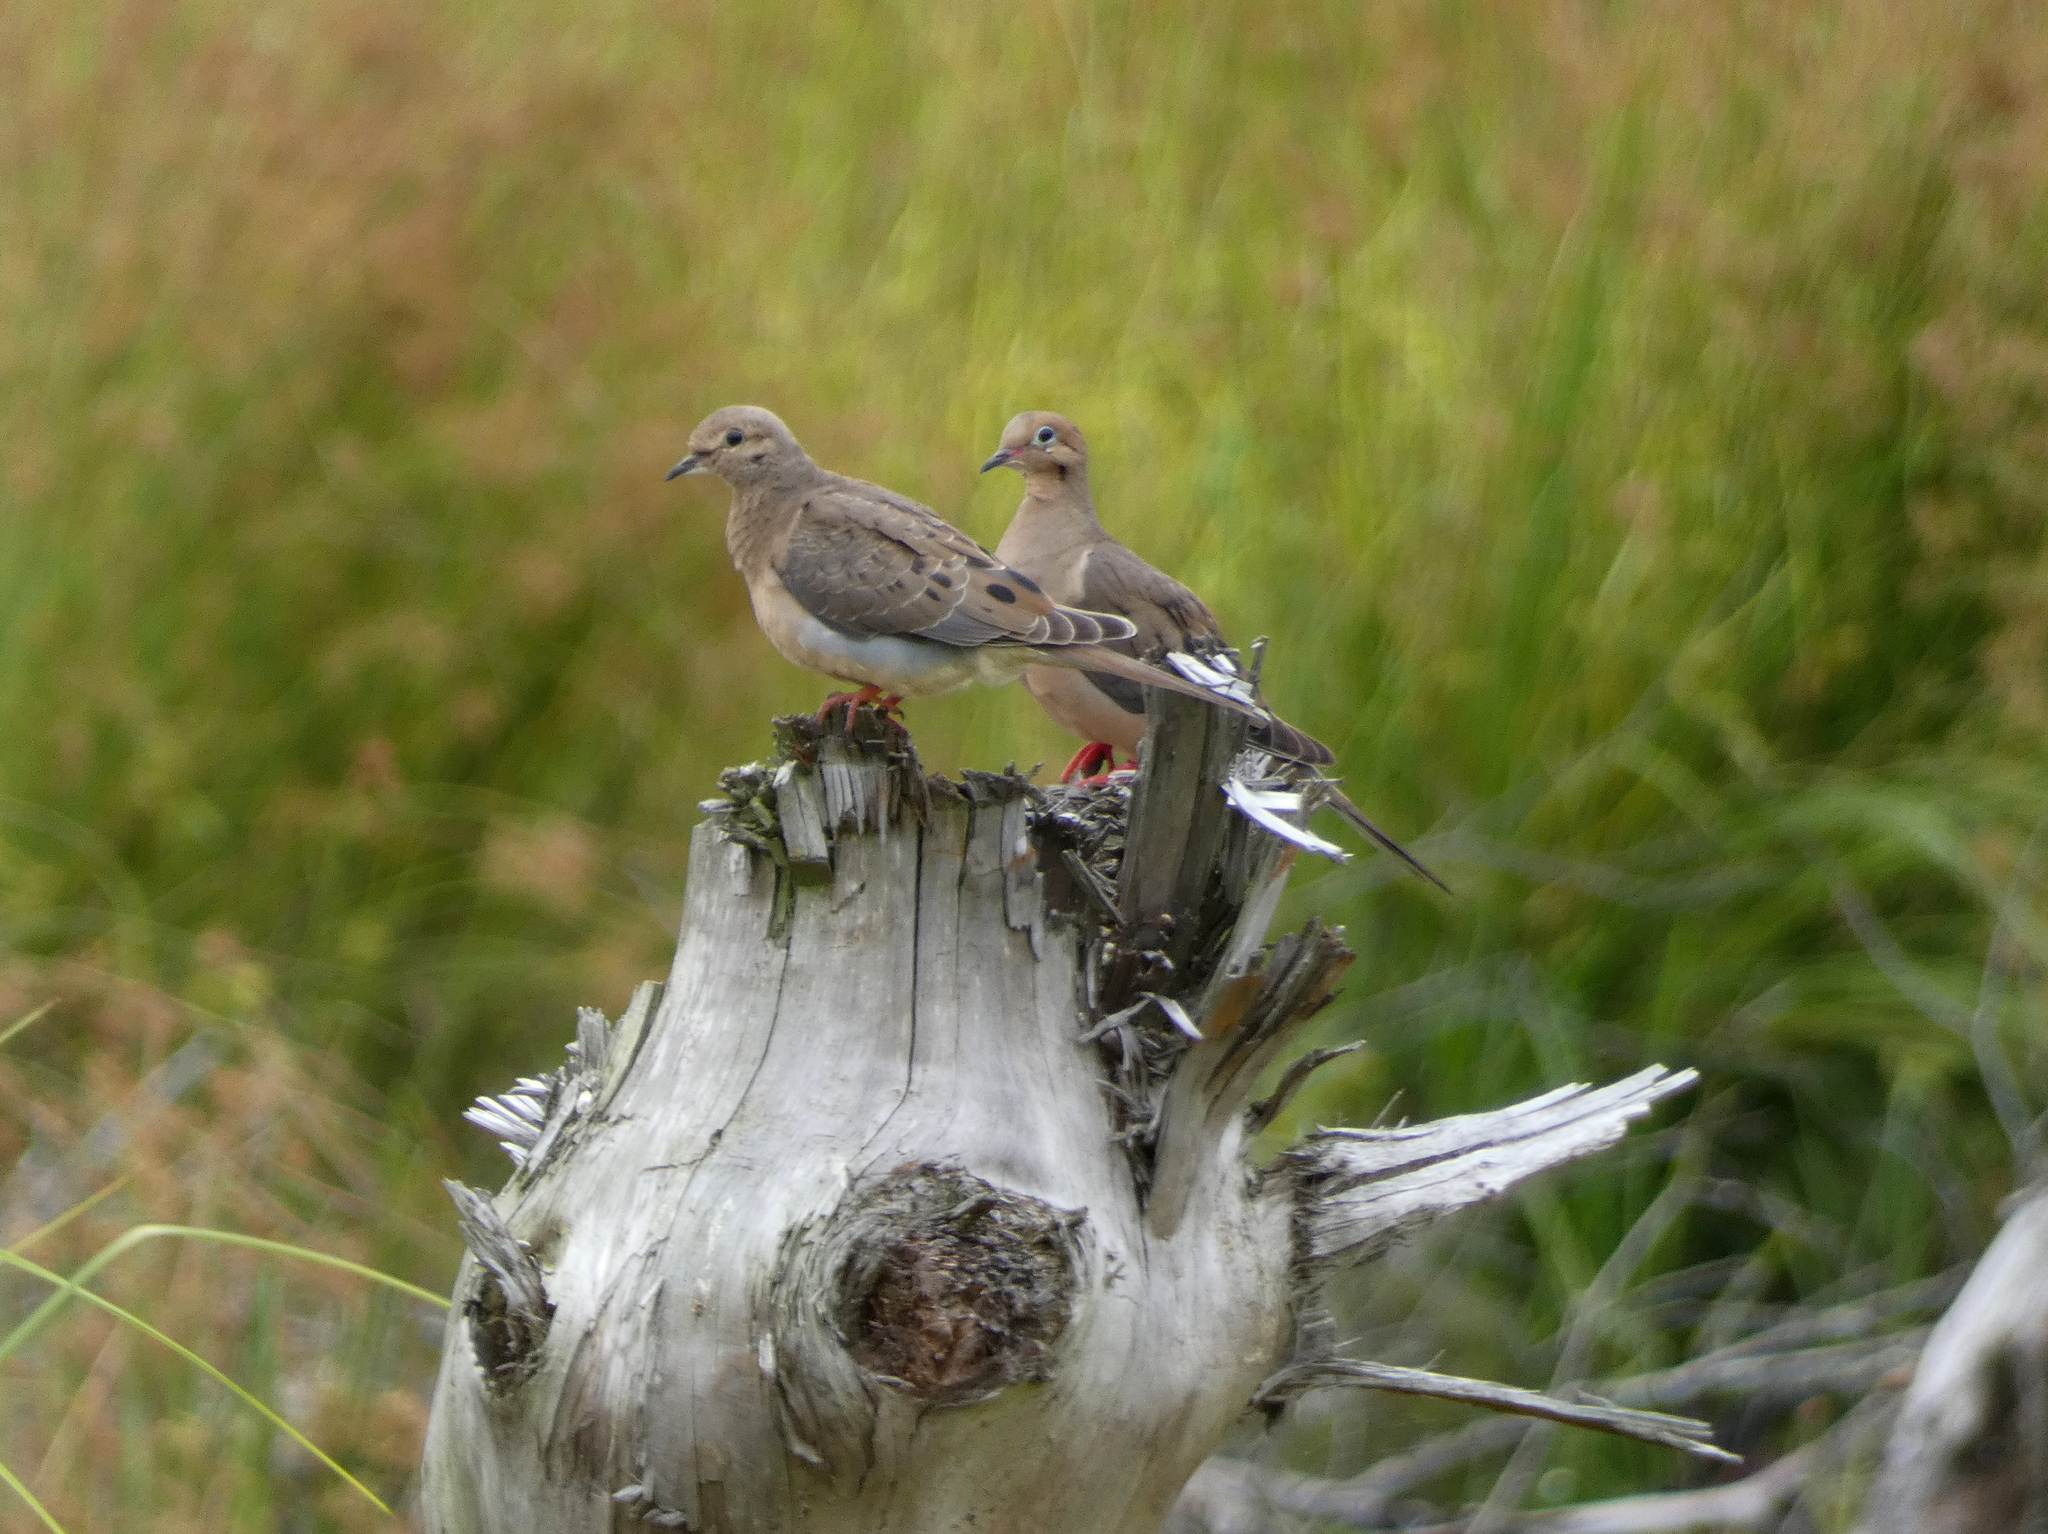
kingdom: Animalia
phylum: Chordata
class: Aves
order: Columbiformes
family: Columbidae
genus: Zenaida
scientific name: Zenaida macroura
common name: Mourning dove
